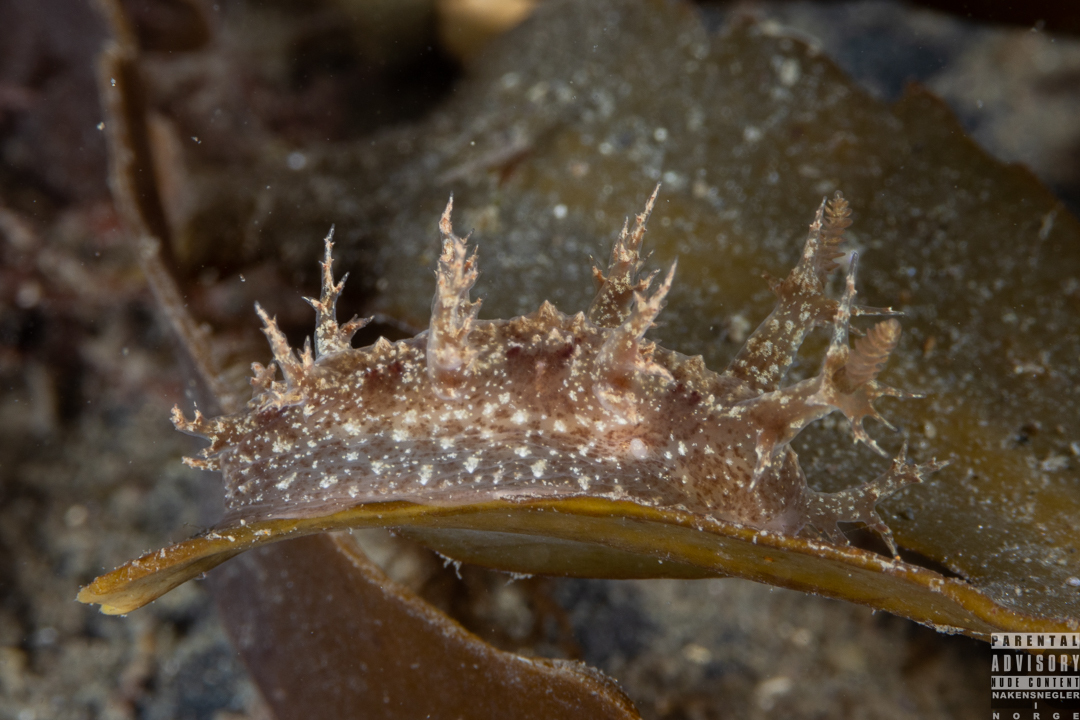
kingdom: Animalia
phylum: Mollusca
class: Gastropoda
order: Nudibranchia
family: Dendronotidae
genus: Dendronotus
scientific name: Dendronotus frondosus
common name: Bushy-backed nudibranch
